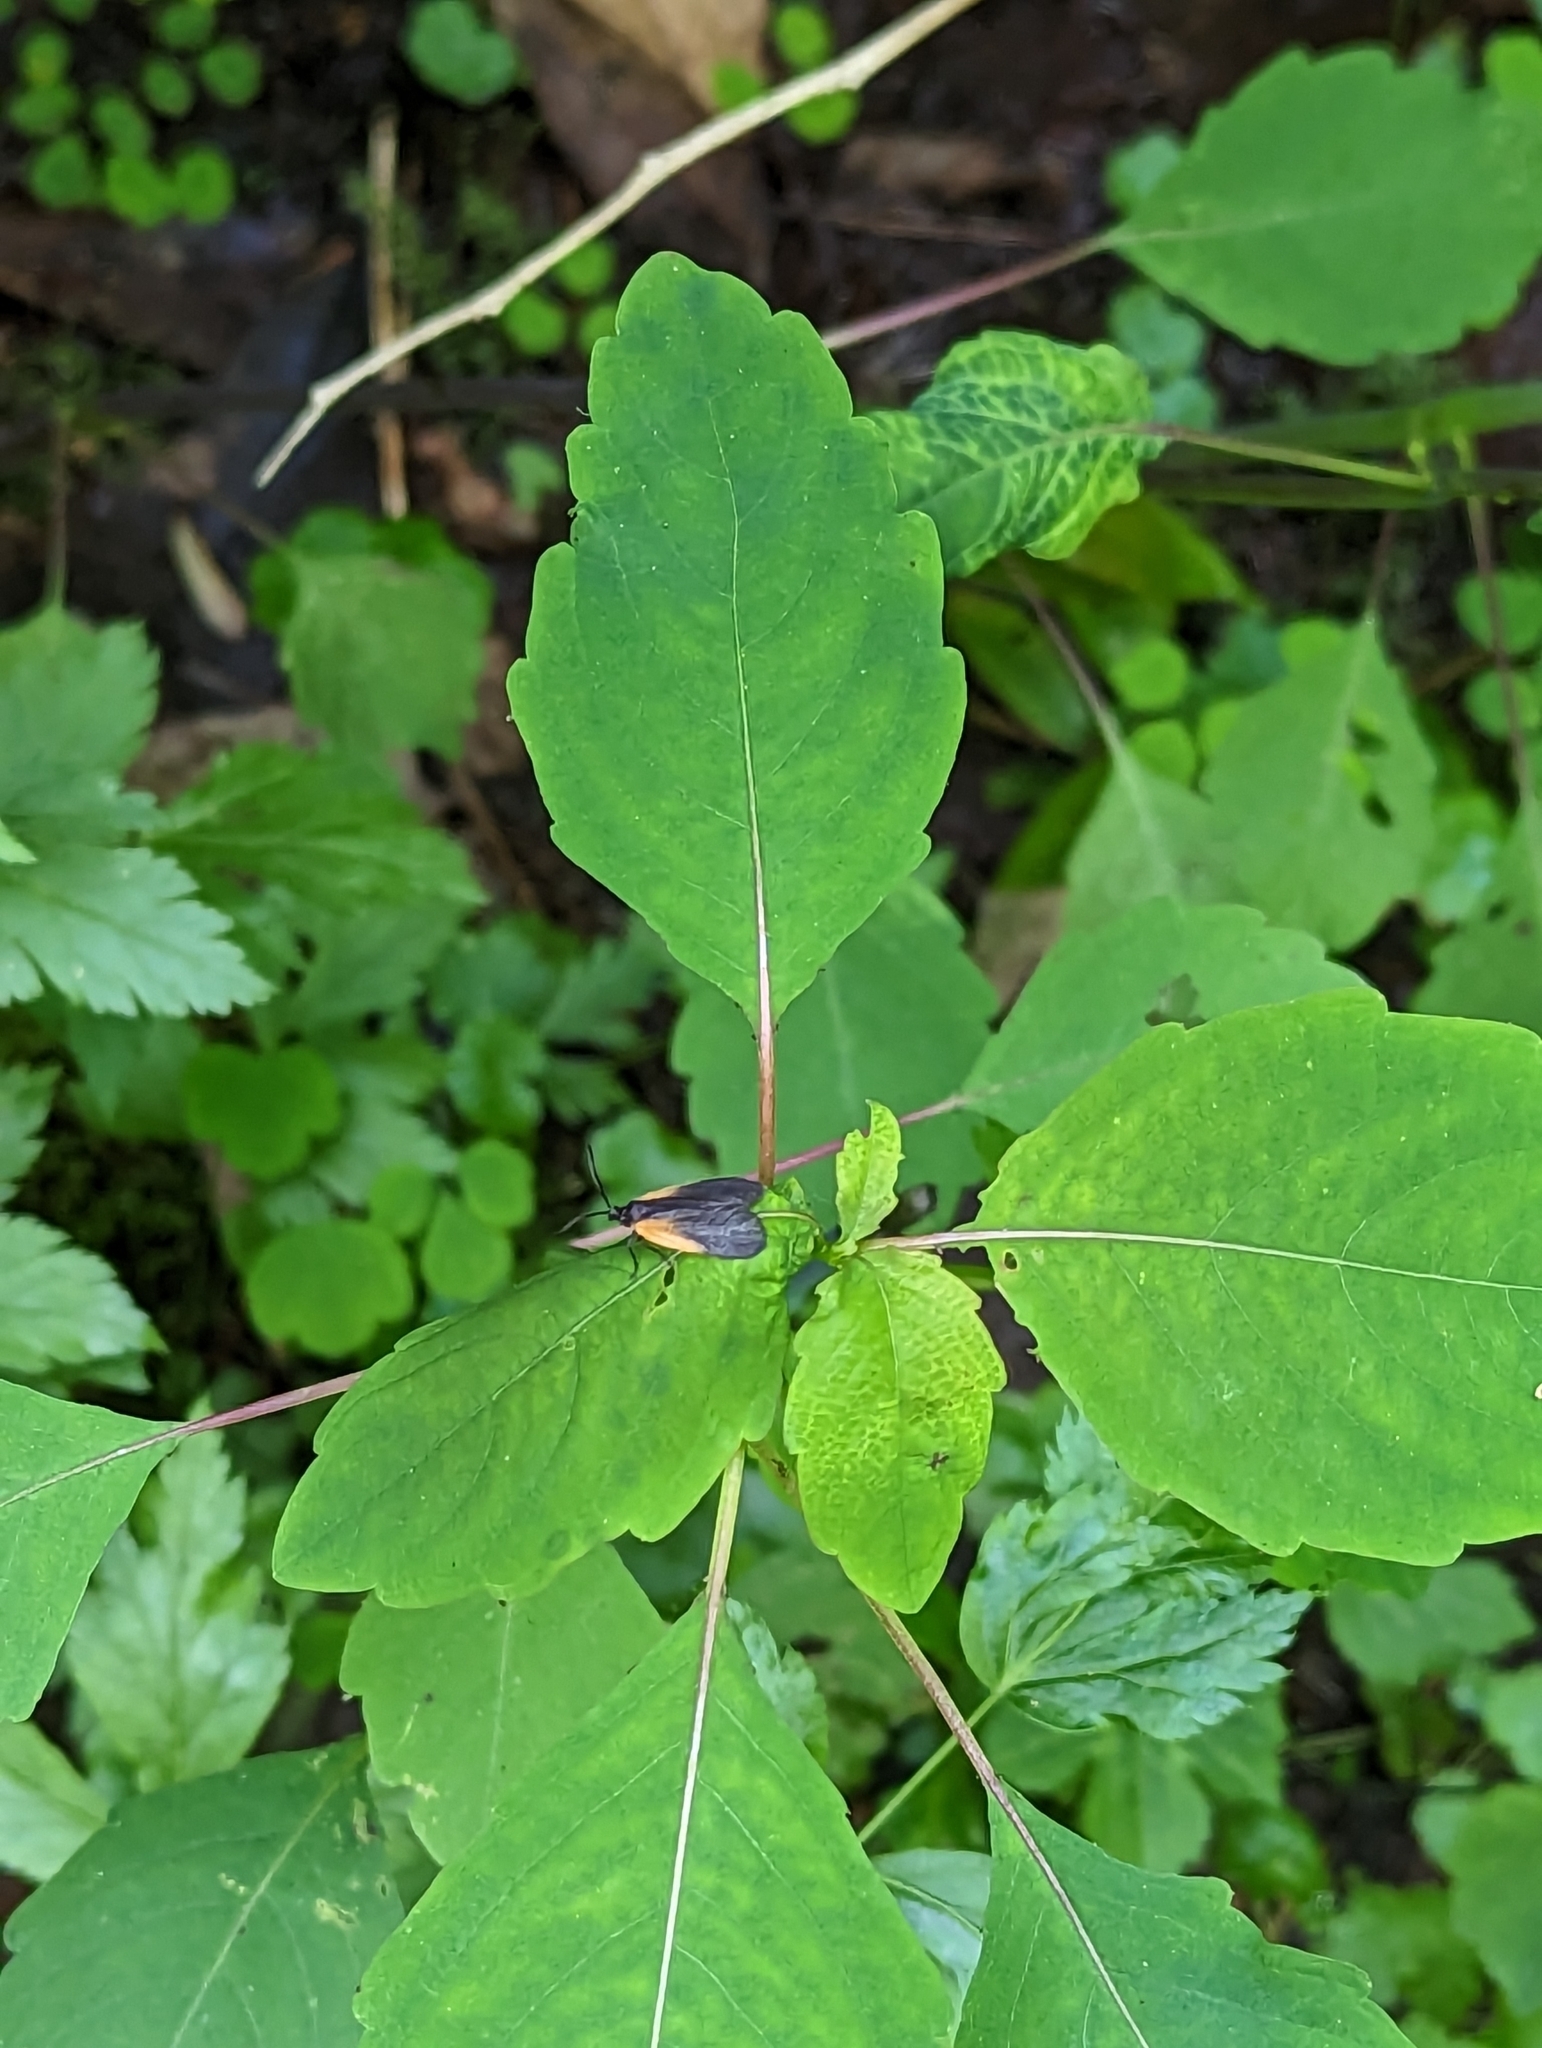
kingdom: Animalia
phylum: Arthropoda
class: Insecta
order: Lepidoptera
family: Zygaenidae
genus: Malthaca
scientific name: Malthaca dimidiata
